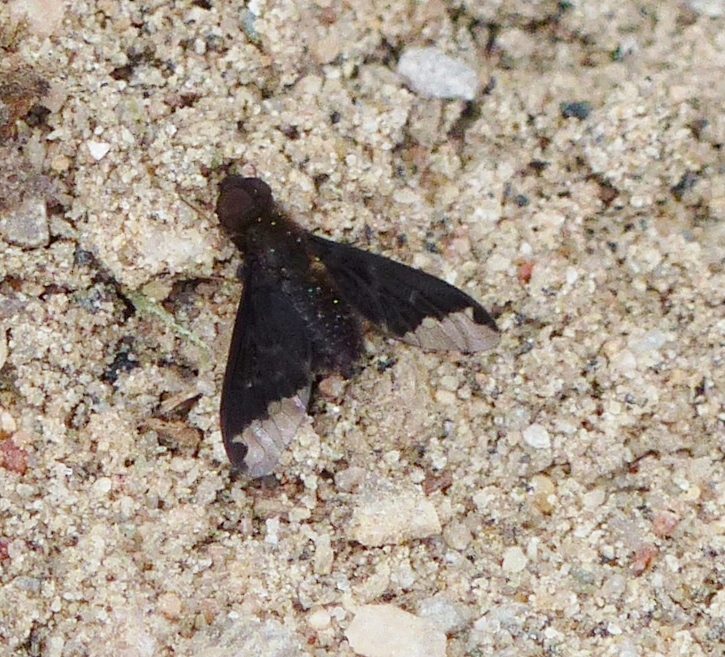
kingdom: Animalia
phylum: Arthropoda
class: Insecta
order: Diptera
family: Bombyliidae
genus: Hemipenthes
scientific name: Hemipenthes sinuosus
